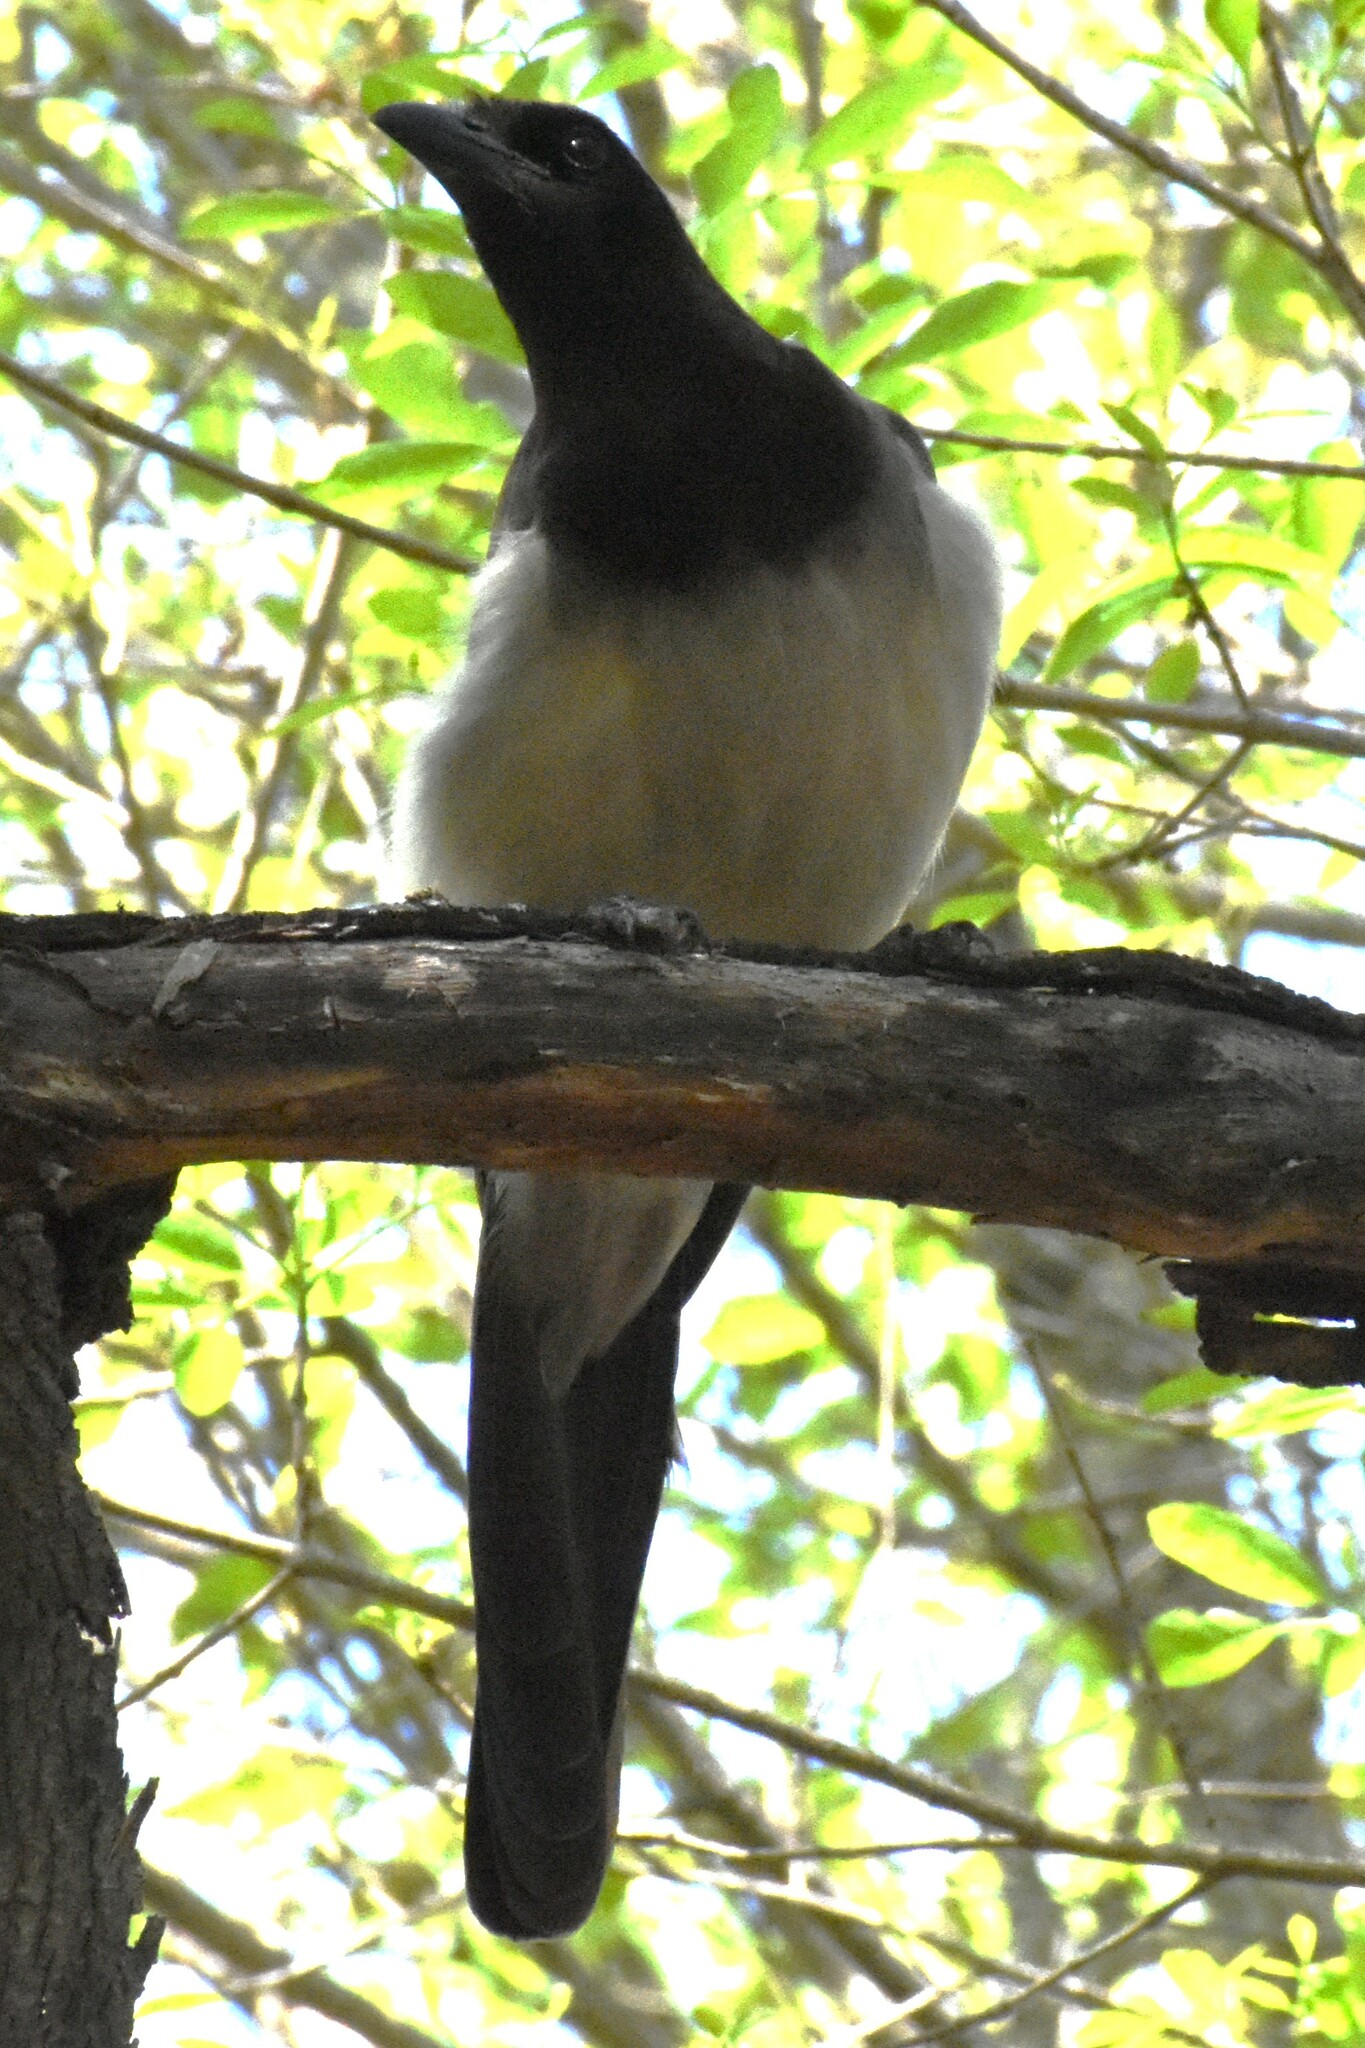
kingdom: Animalia
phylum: Chordata
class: Aves
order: Passeriformes
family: Corvidae
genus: Psilorhinus
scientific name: Psilorhinus morio
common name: Brown jay
